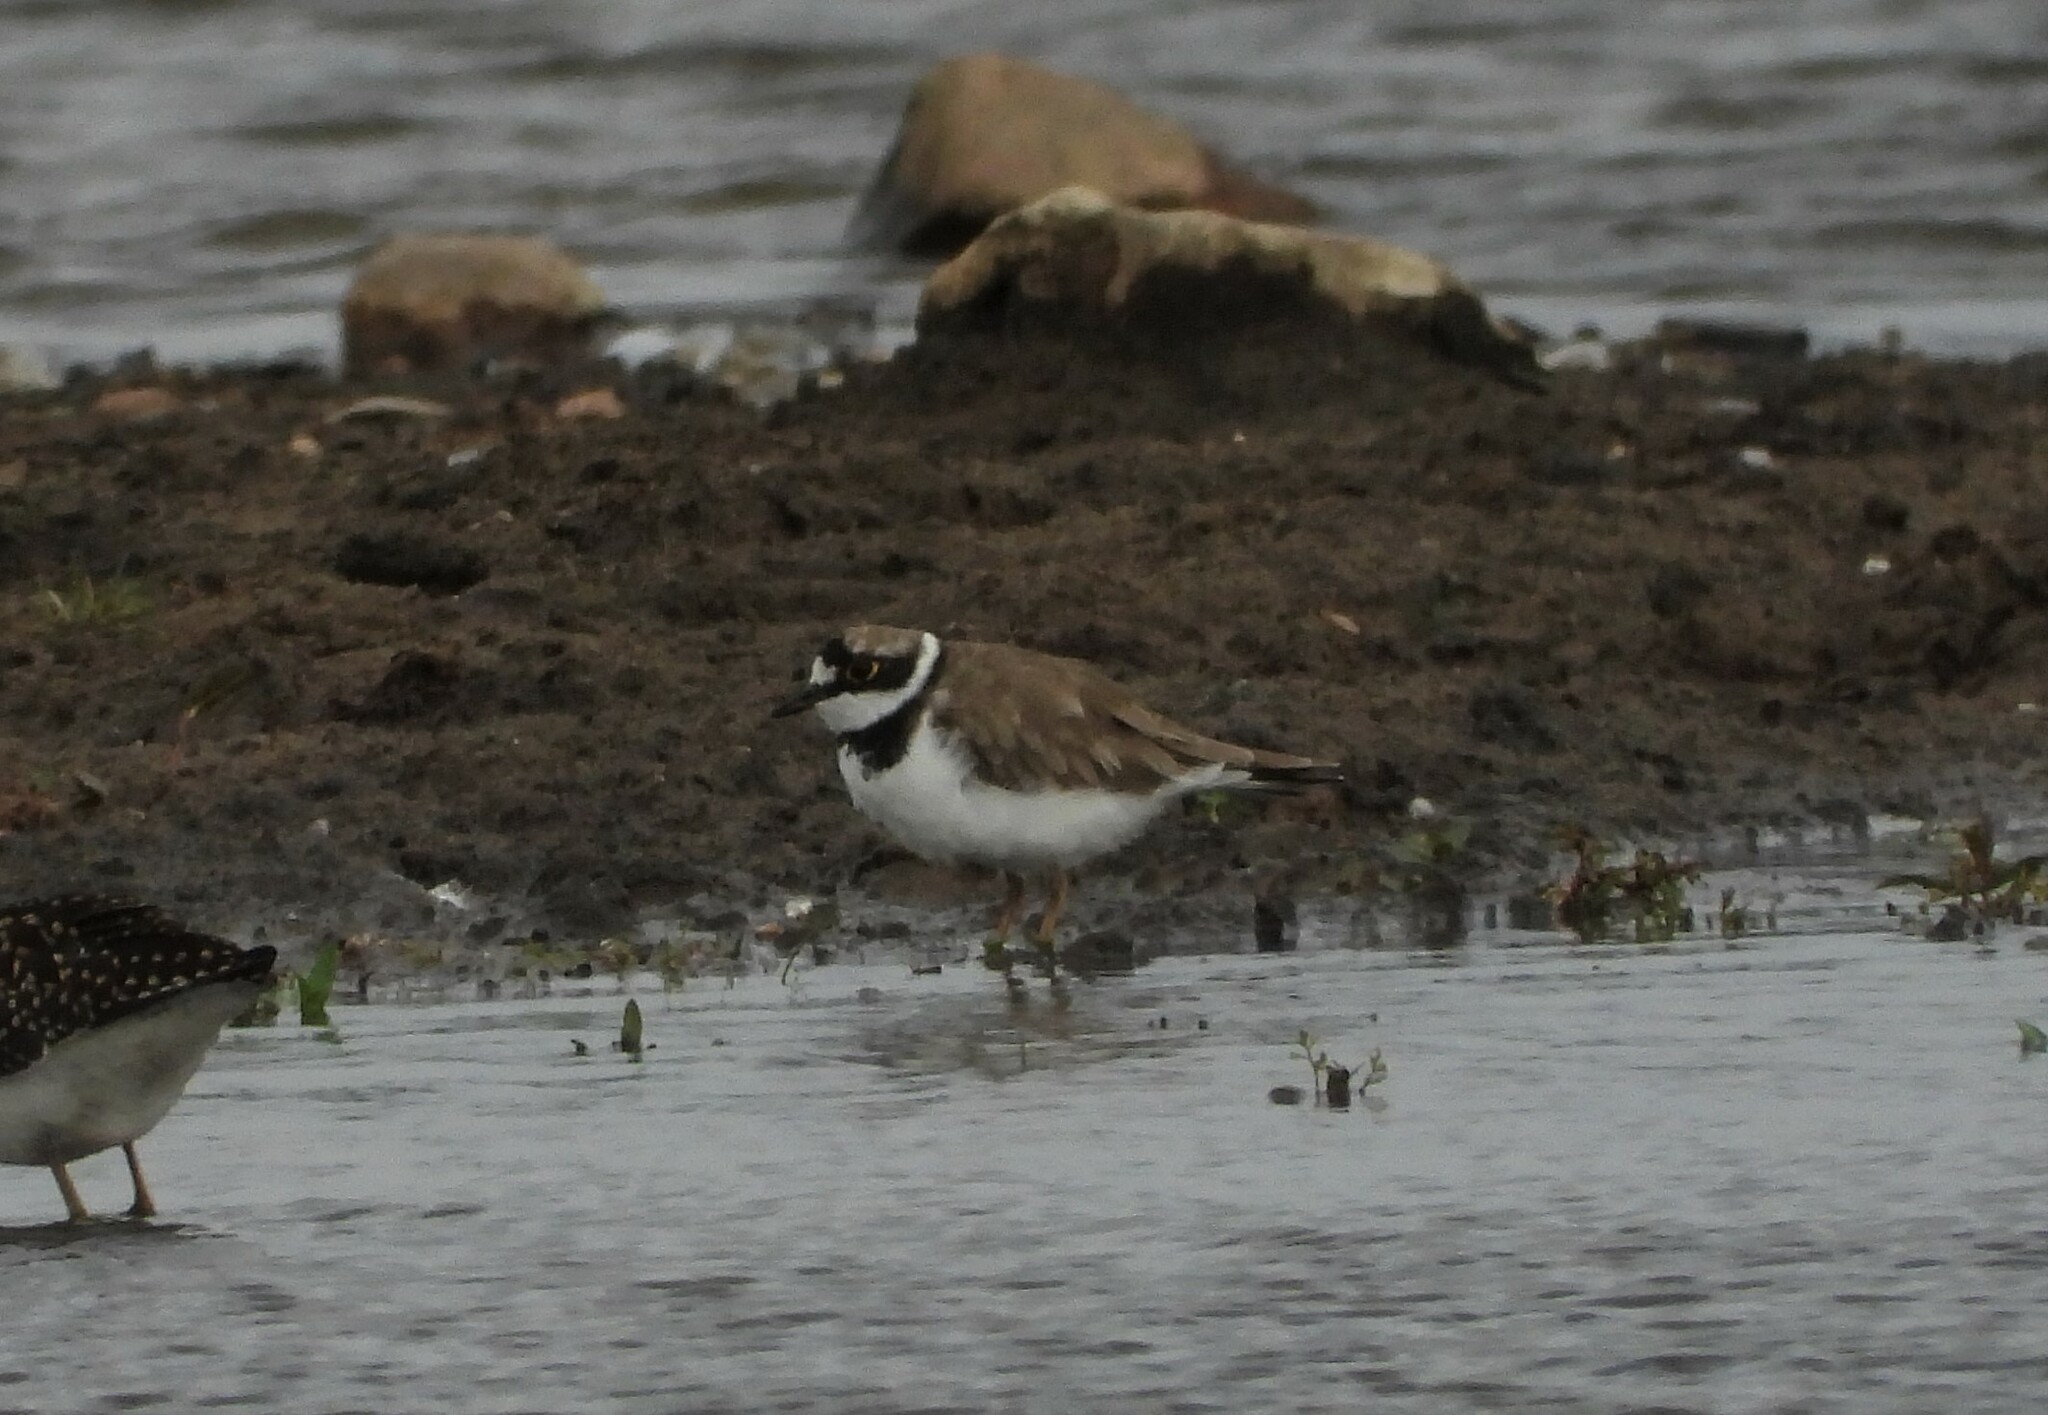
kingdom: Animalia
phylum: Chordata
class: Aves
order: Charadriiformes
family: Charadriidae
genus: Charadrius
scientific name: Charadrius dubius
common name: Little ringed plover
